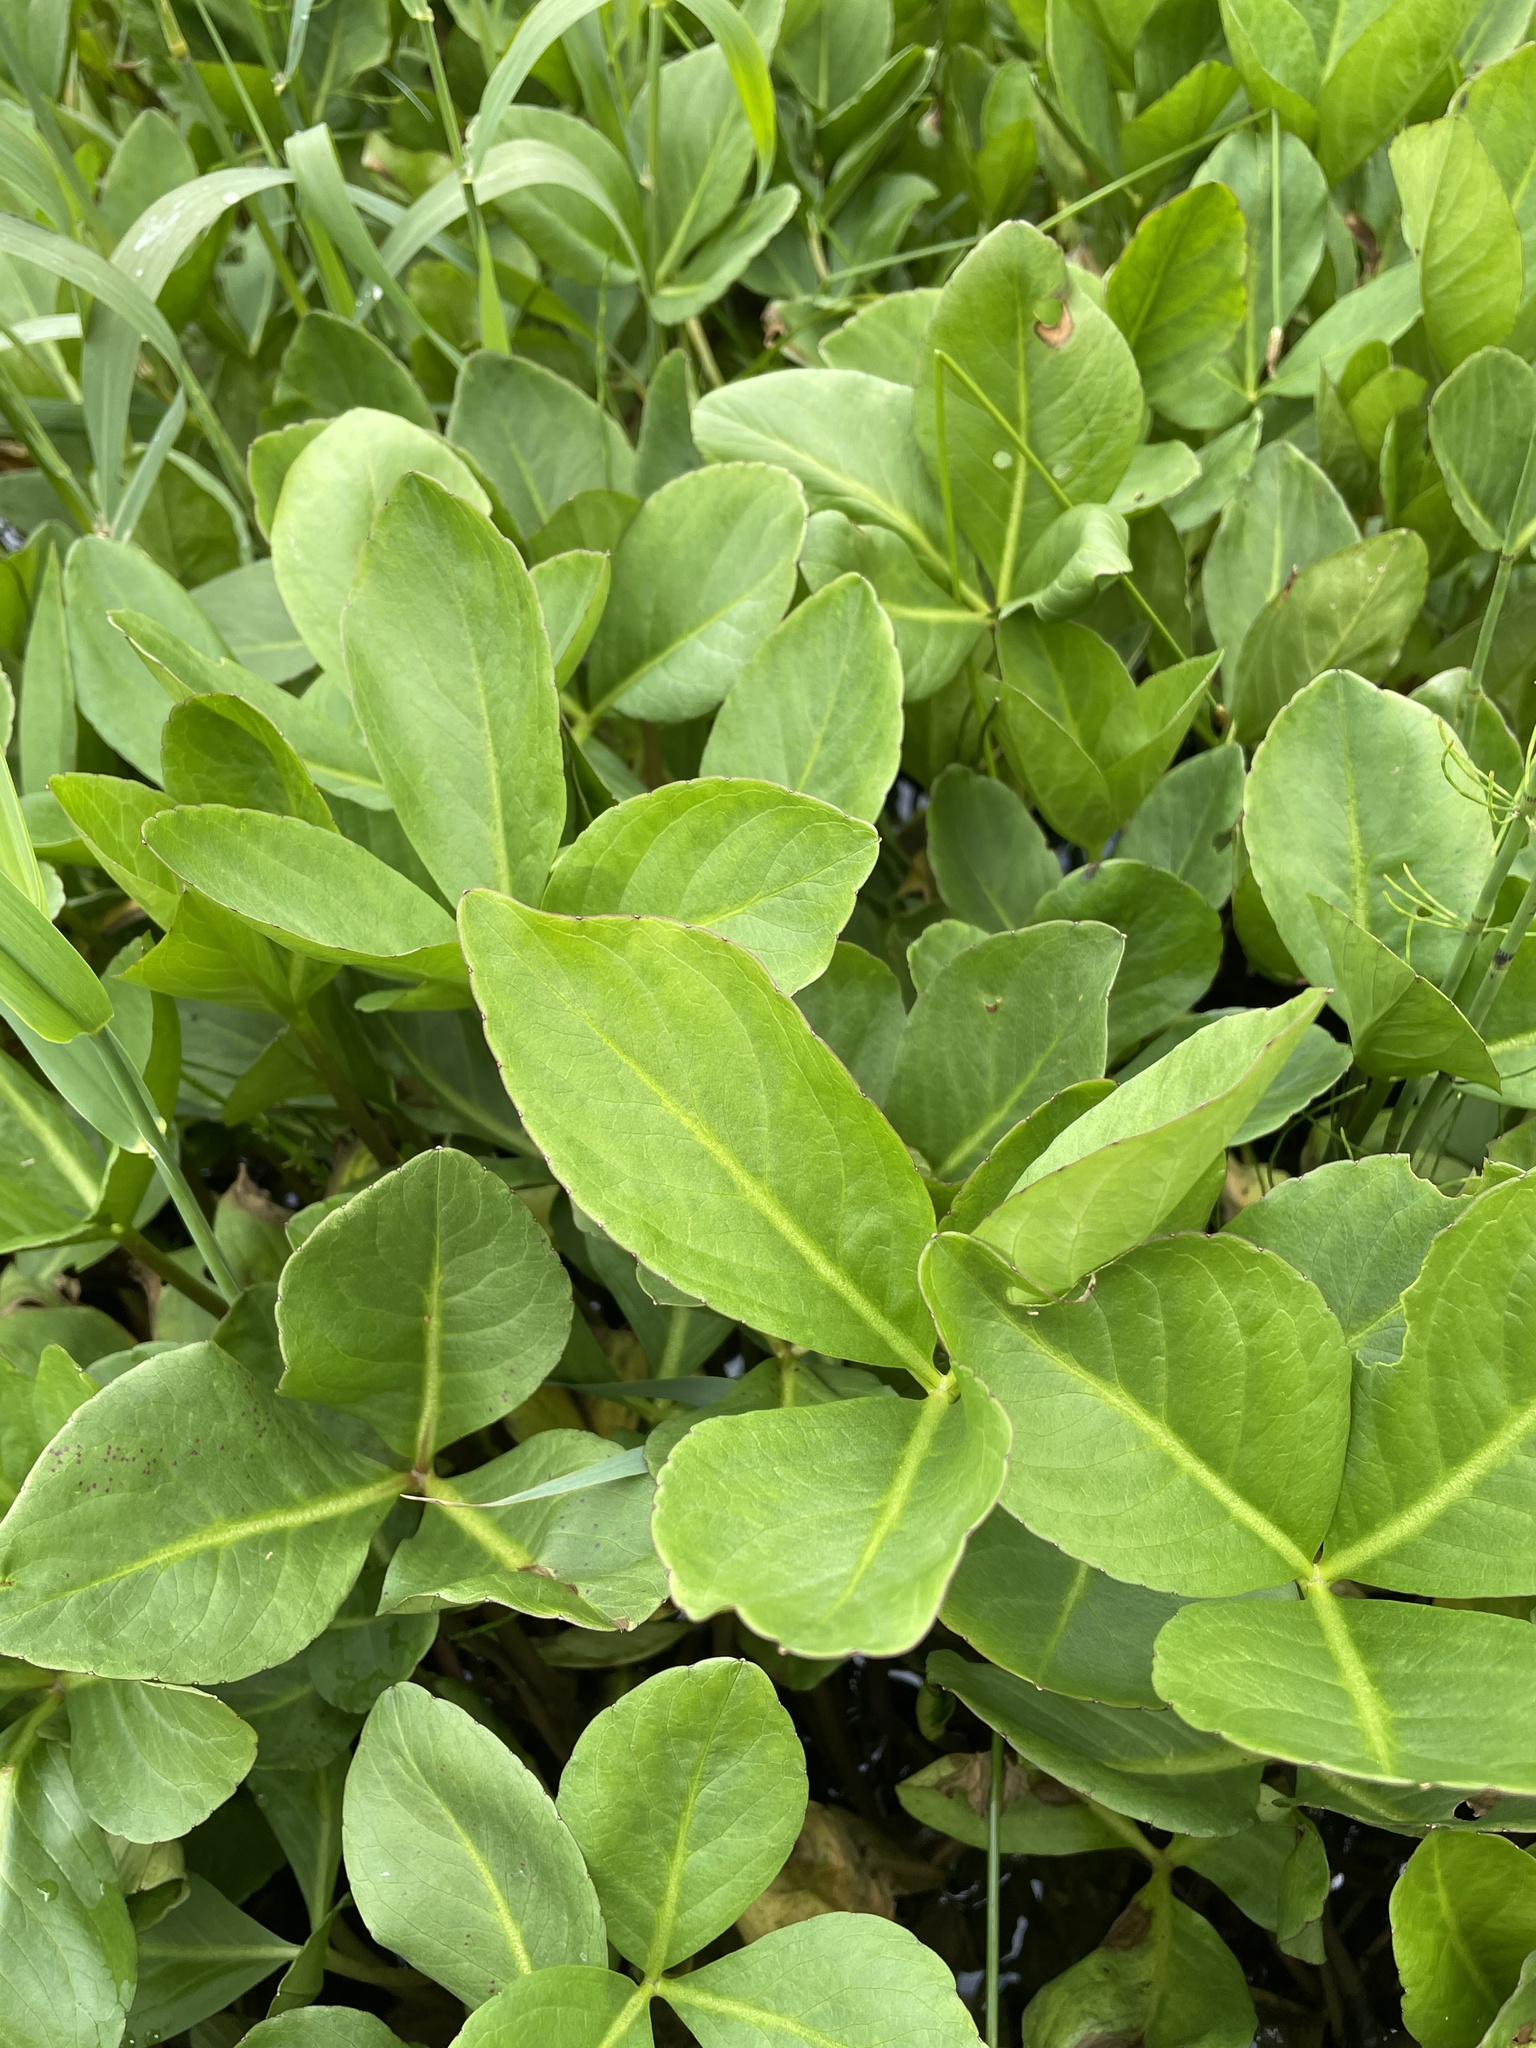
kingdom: Plantae
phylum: Tracheophyta
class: Magnoliopsida
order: Asterales
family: Menyanthaceae
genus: Menyanthes
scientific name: Menyanthes trifoliata
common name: Bogbean
